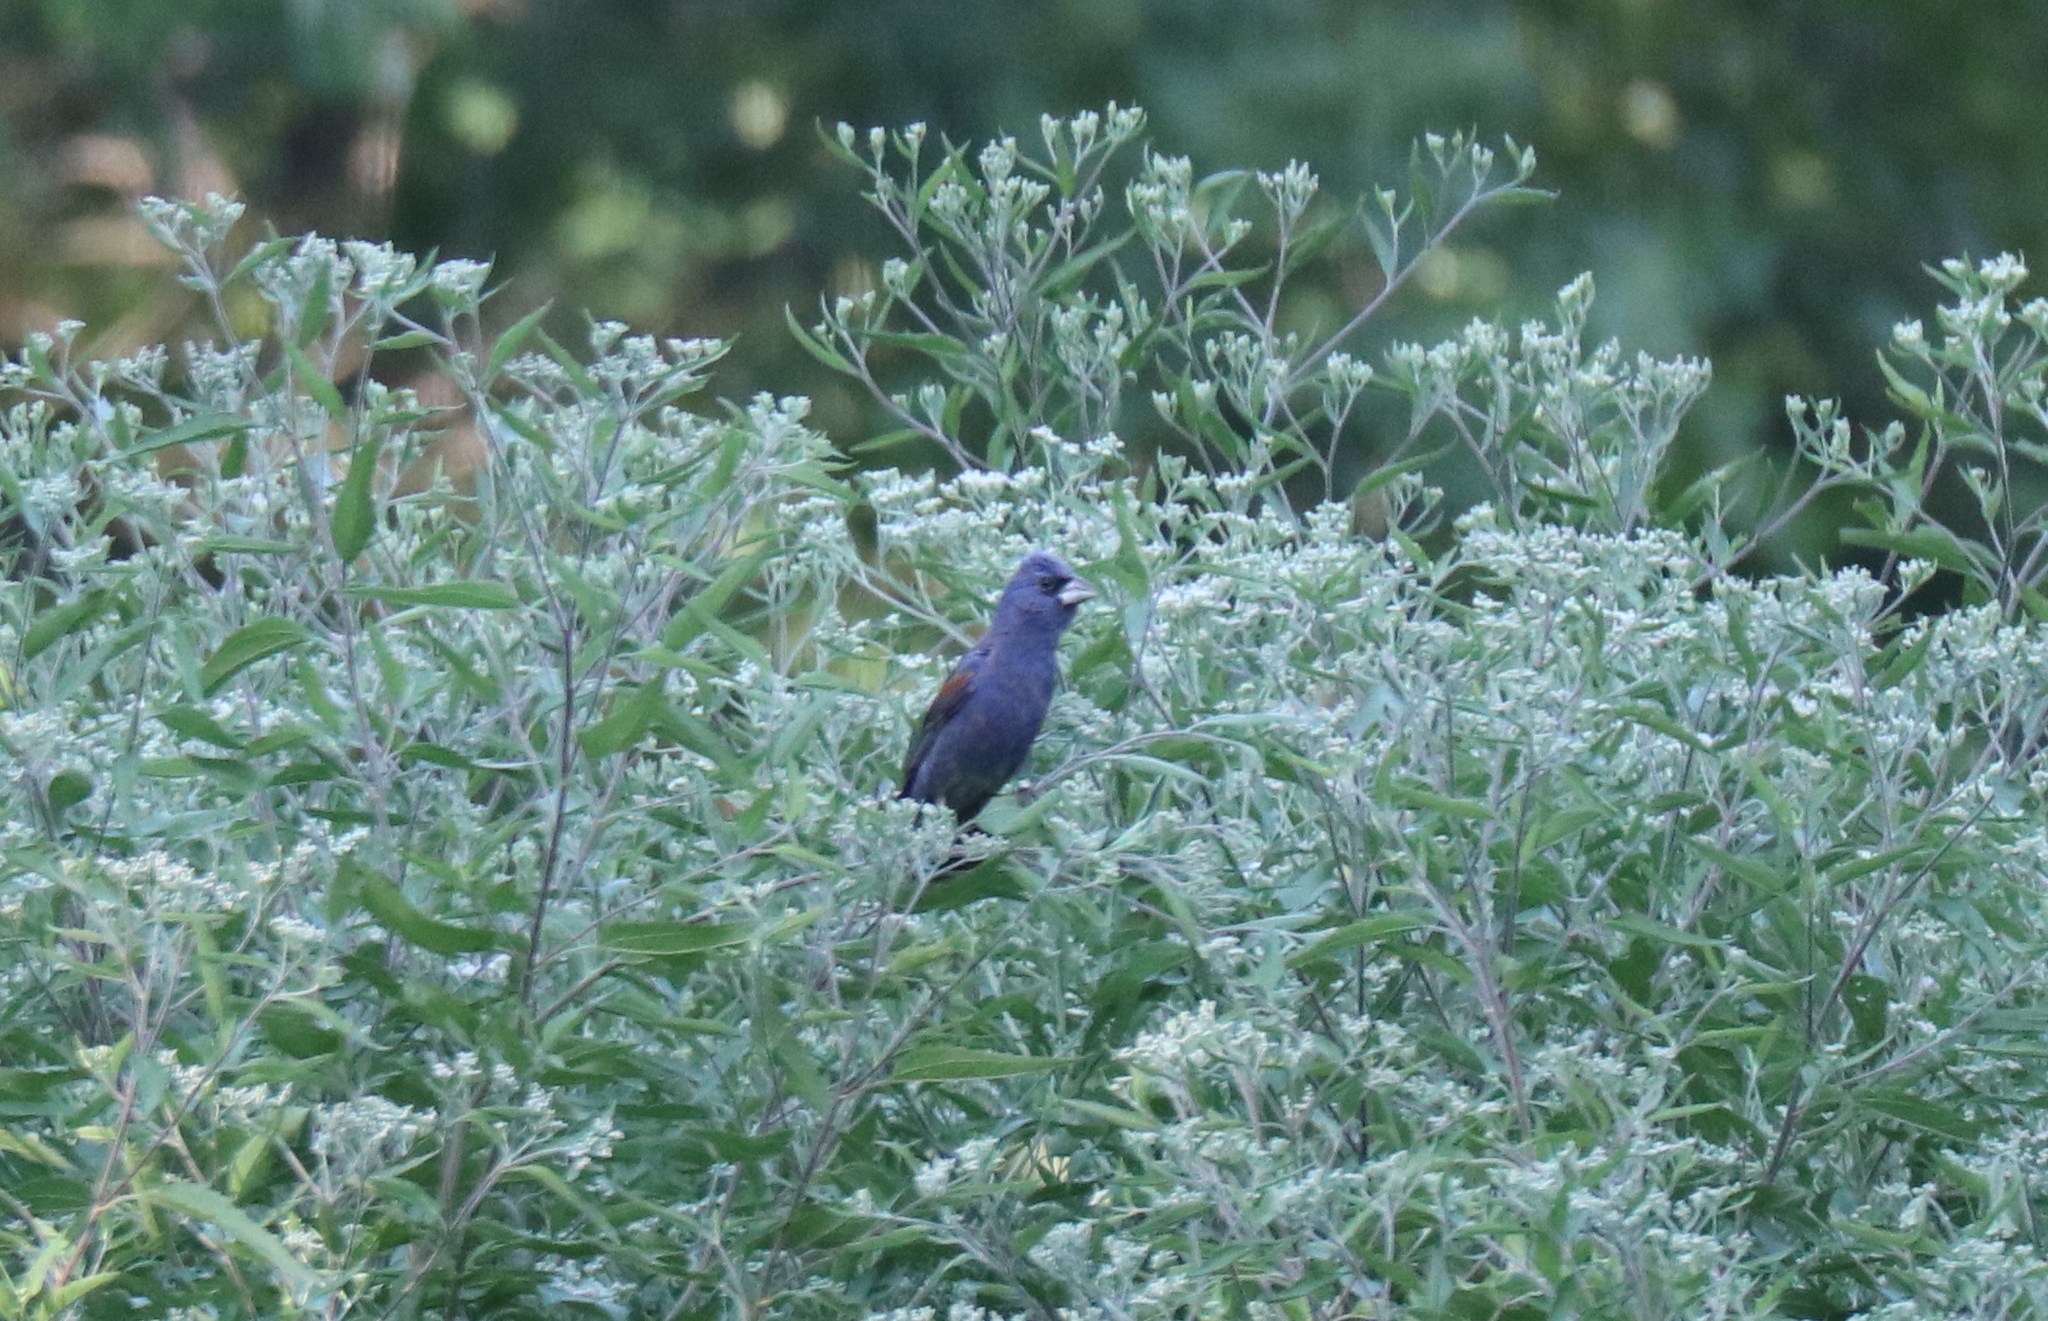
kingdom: Animalia
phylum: Chordata
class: Aves
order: Passeriformes
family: Cardinalidae
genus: Passerina
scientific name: Passerina caerulea
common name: Blue grosbeak
